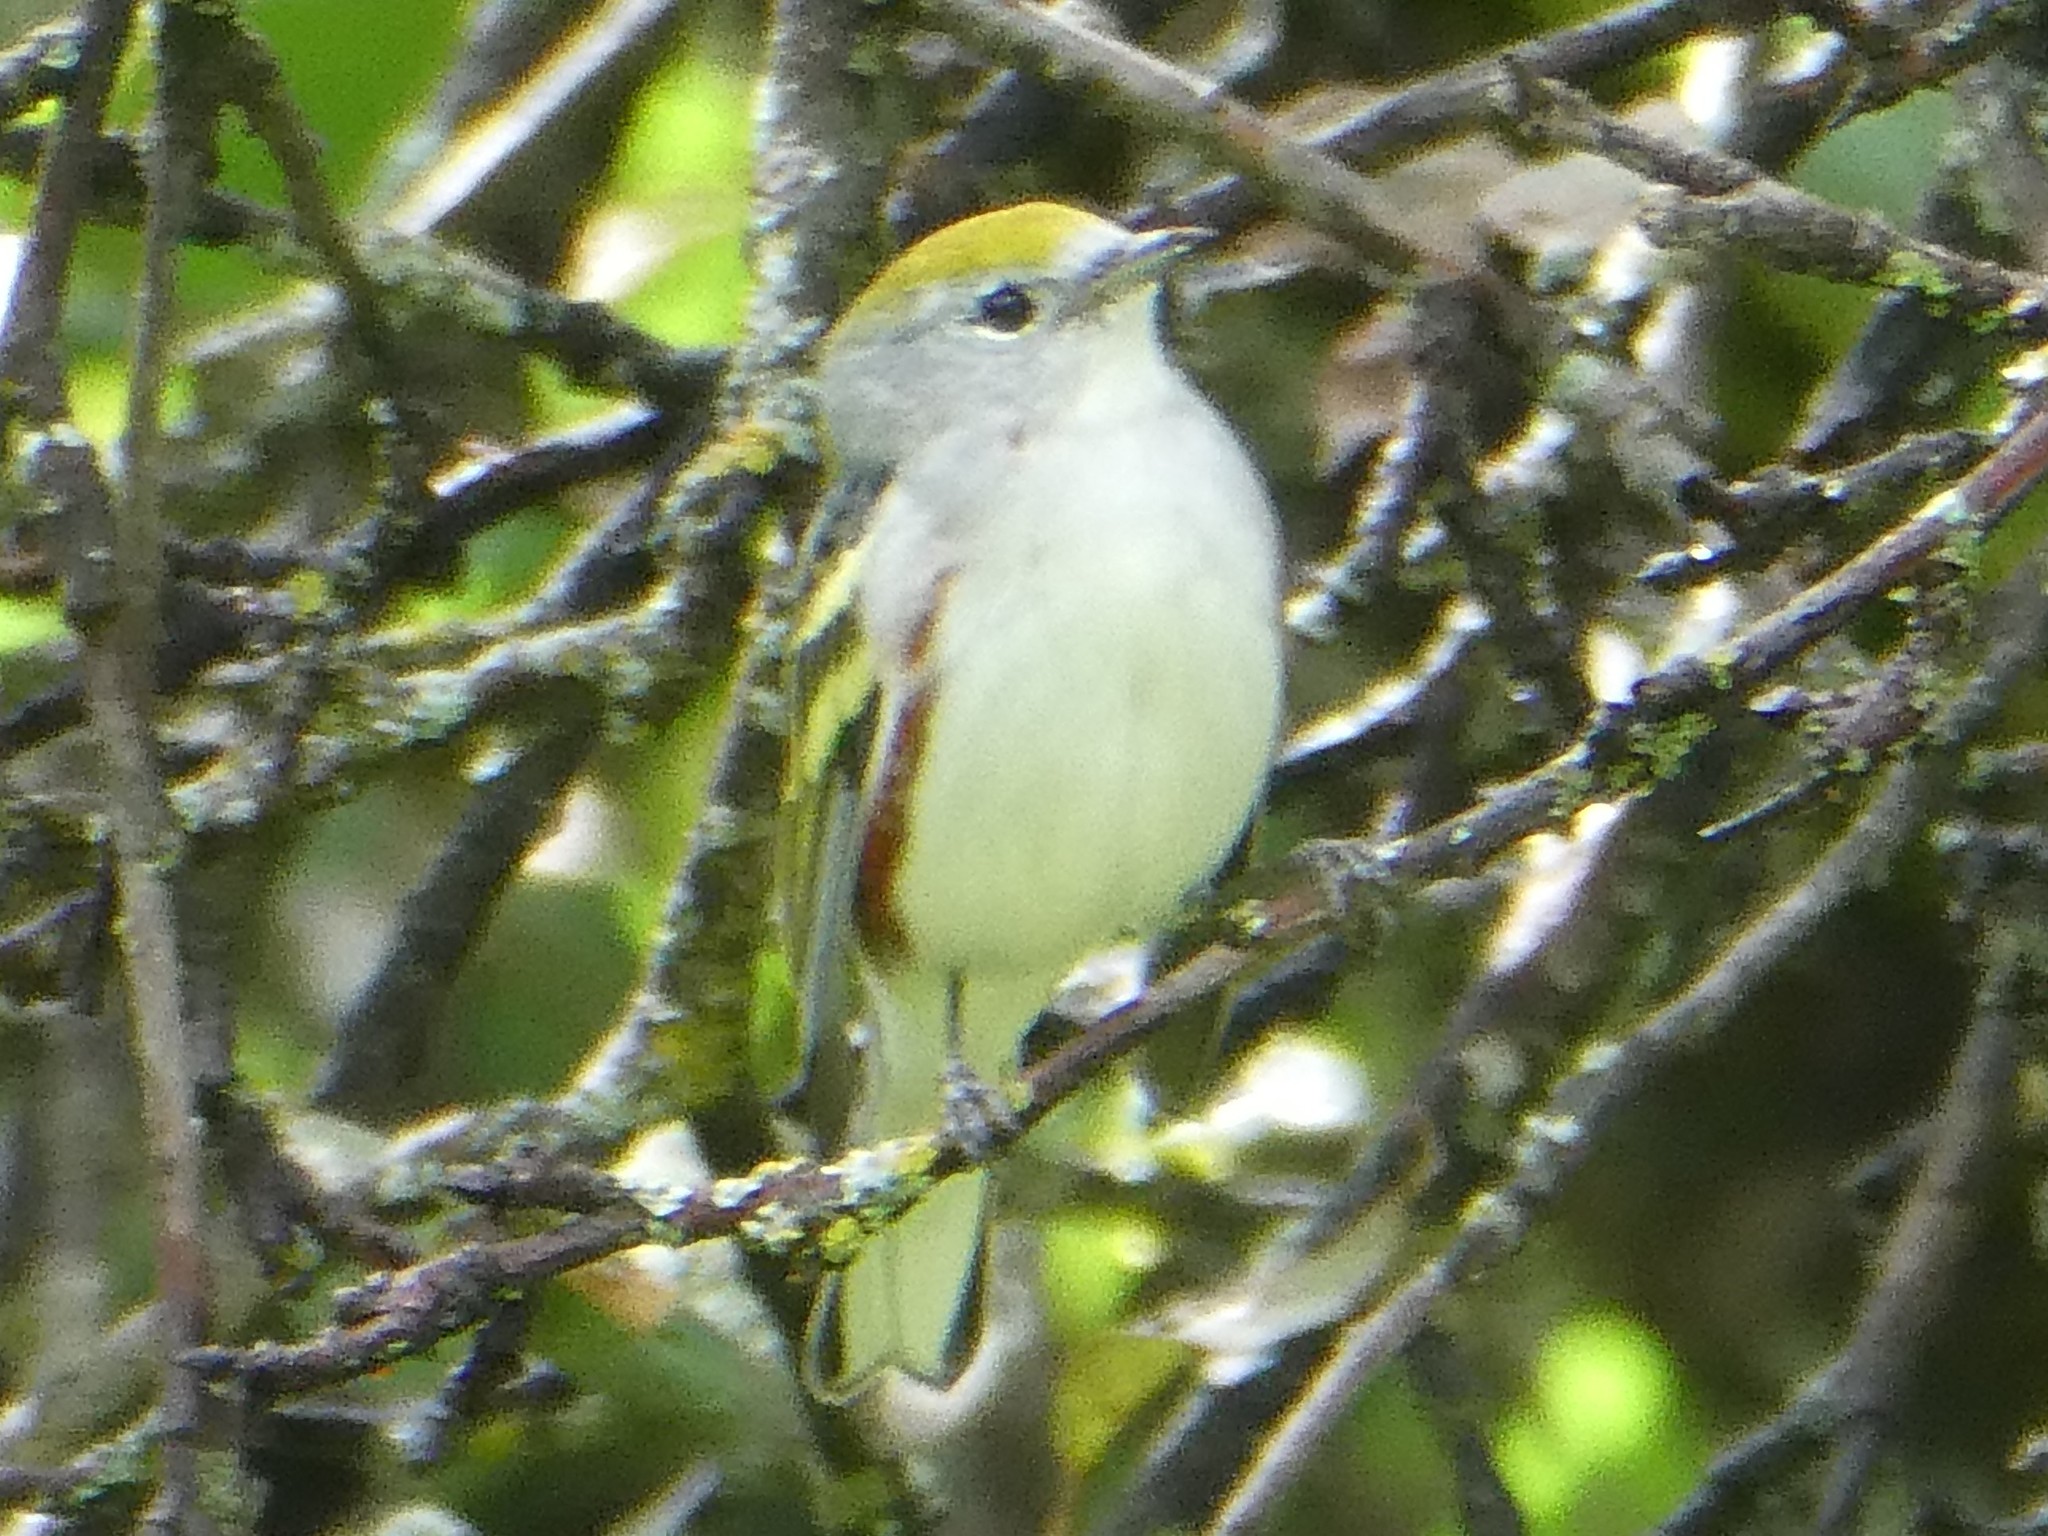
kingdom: Animalia
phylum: Chordata
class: Aves
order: Passeriformes
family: Parulidae
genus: Setophaga
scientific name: Setophaga pensylvanica
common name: Chestnut-sided warbler
